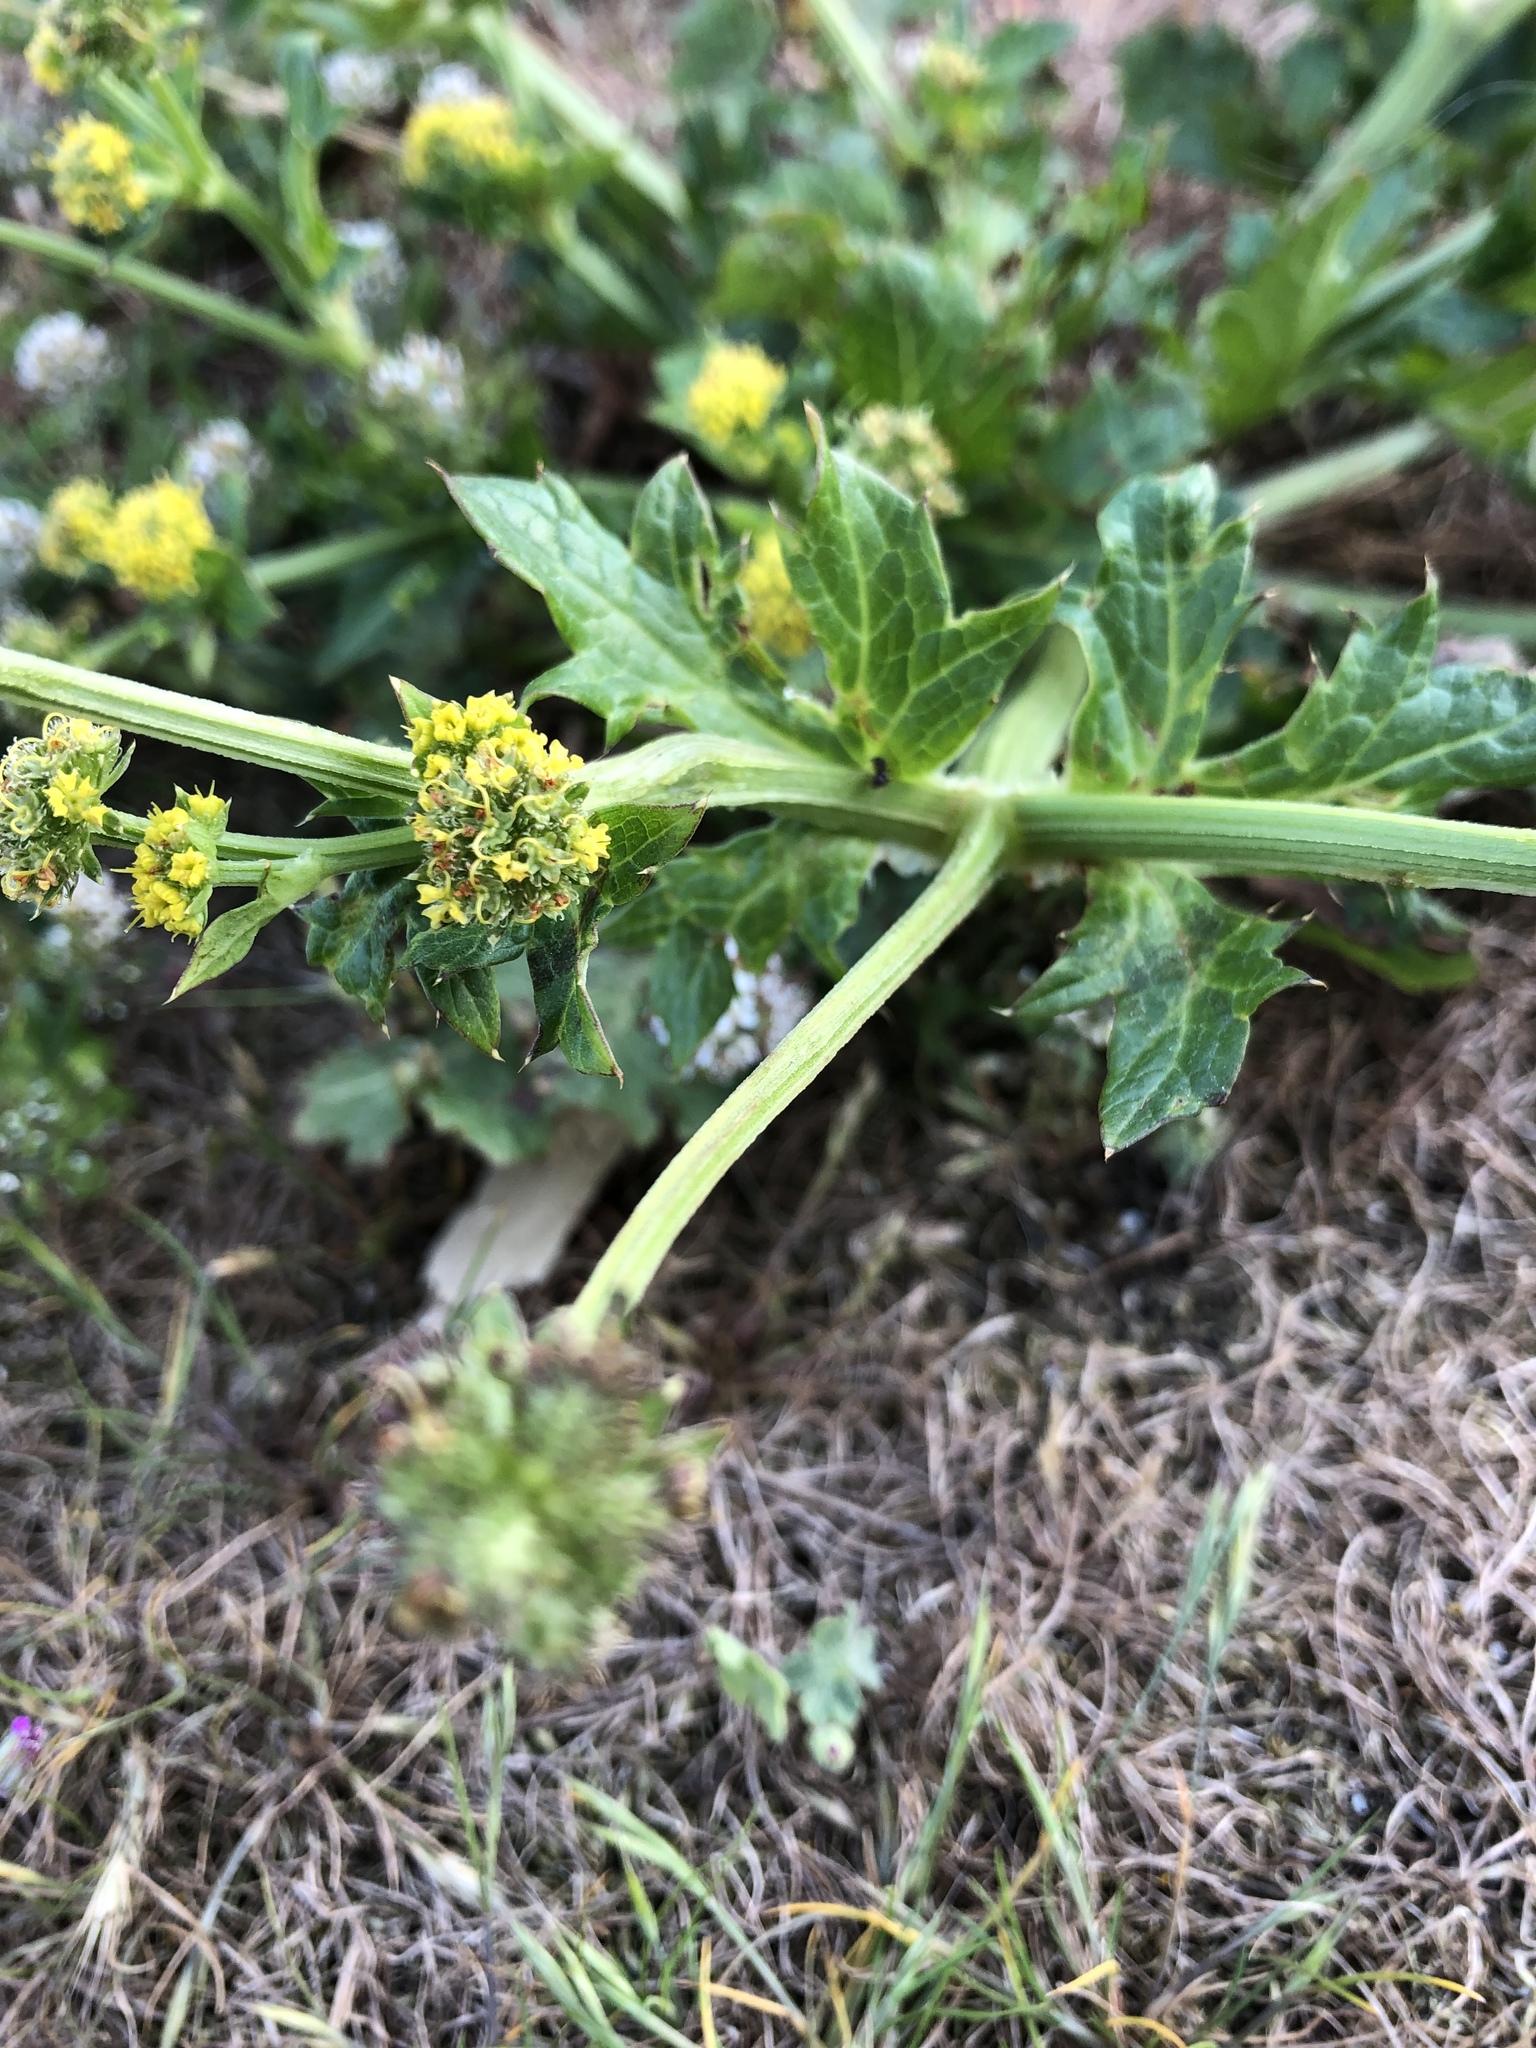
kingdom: Plantae
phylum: Tracheophyta
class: Magnoliopsida
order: Apiales
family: Apiaceae
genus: Sanicula
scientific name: Sanicula crassicaulis
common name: Western snakeroot
